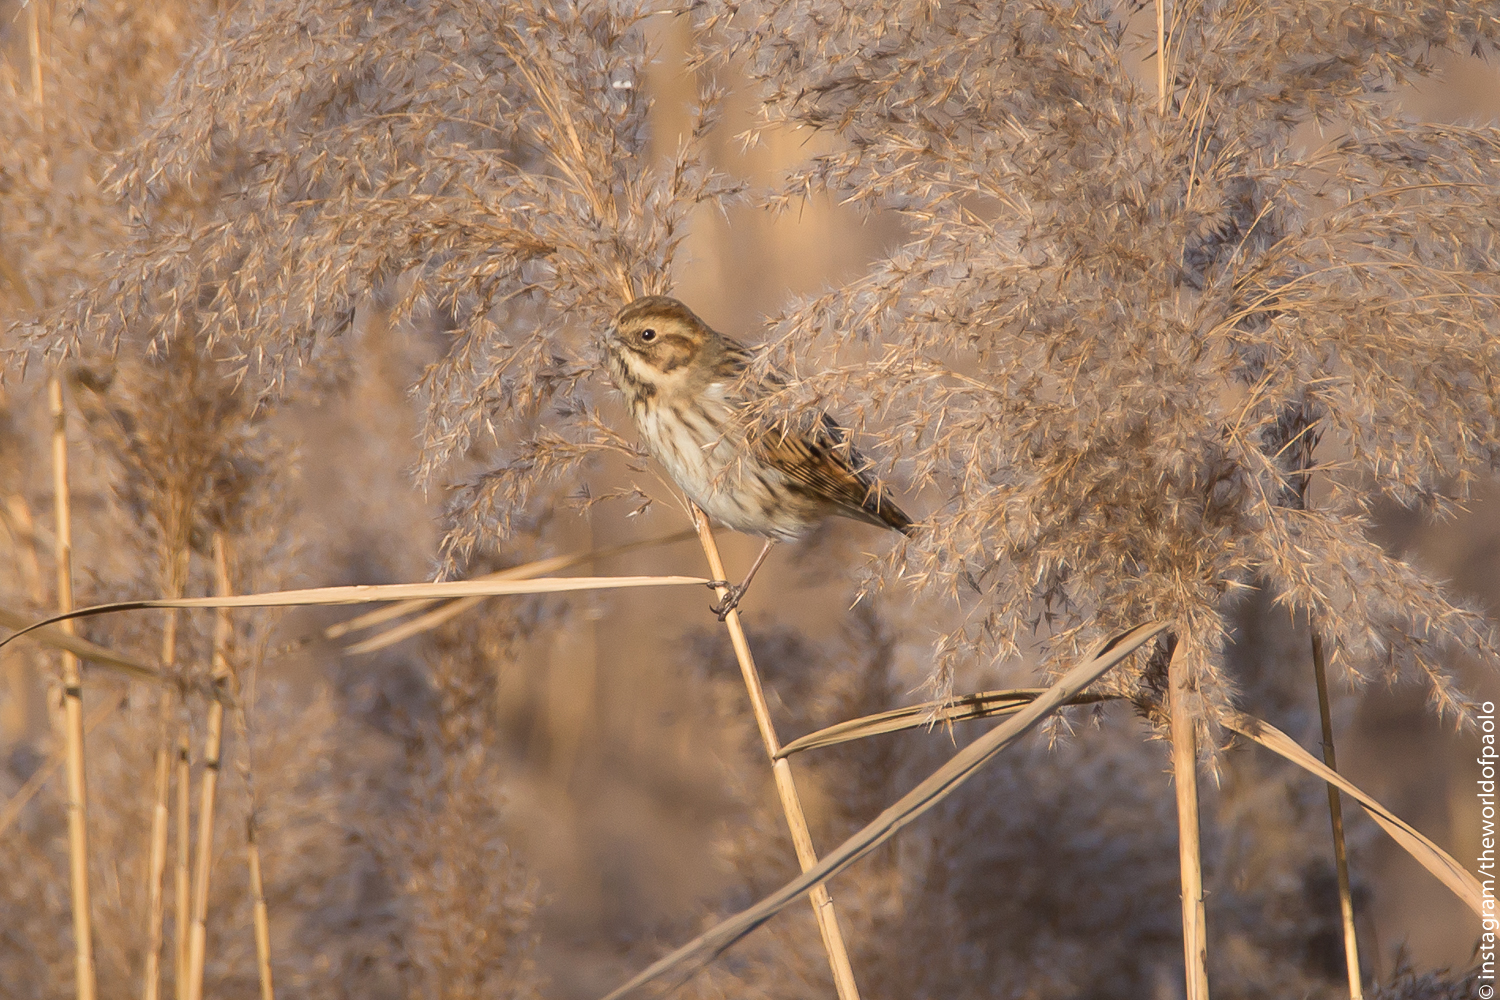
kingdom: Animalia
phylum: Chordata
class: Aves
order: Passeriformes
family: Emberizidae
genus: Emberiza
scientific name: Emberiza schoeniclus
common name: Reed bunting
